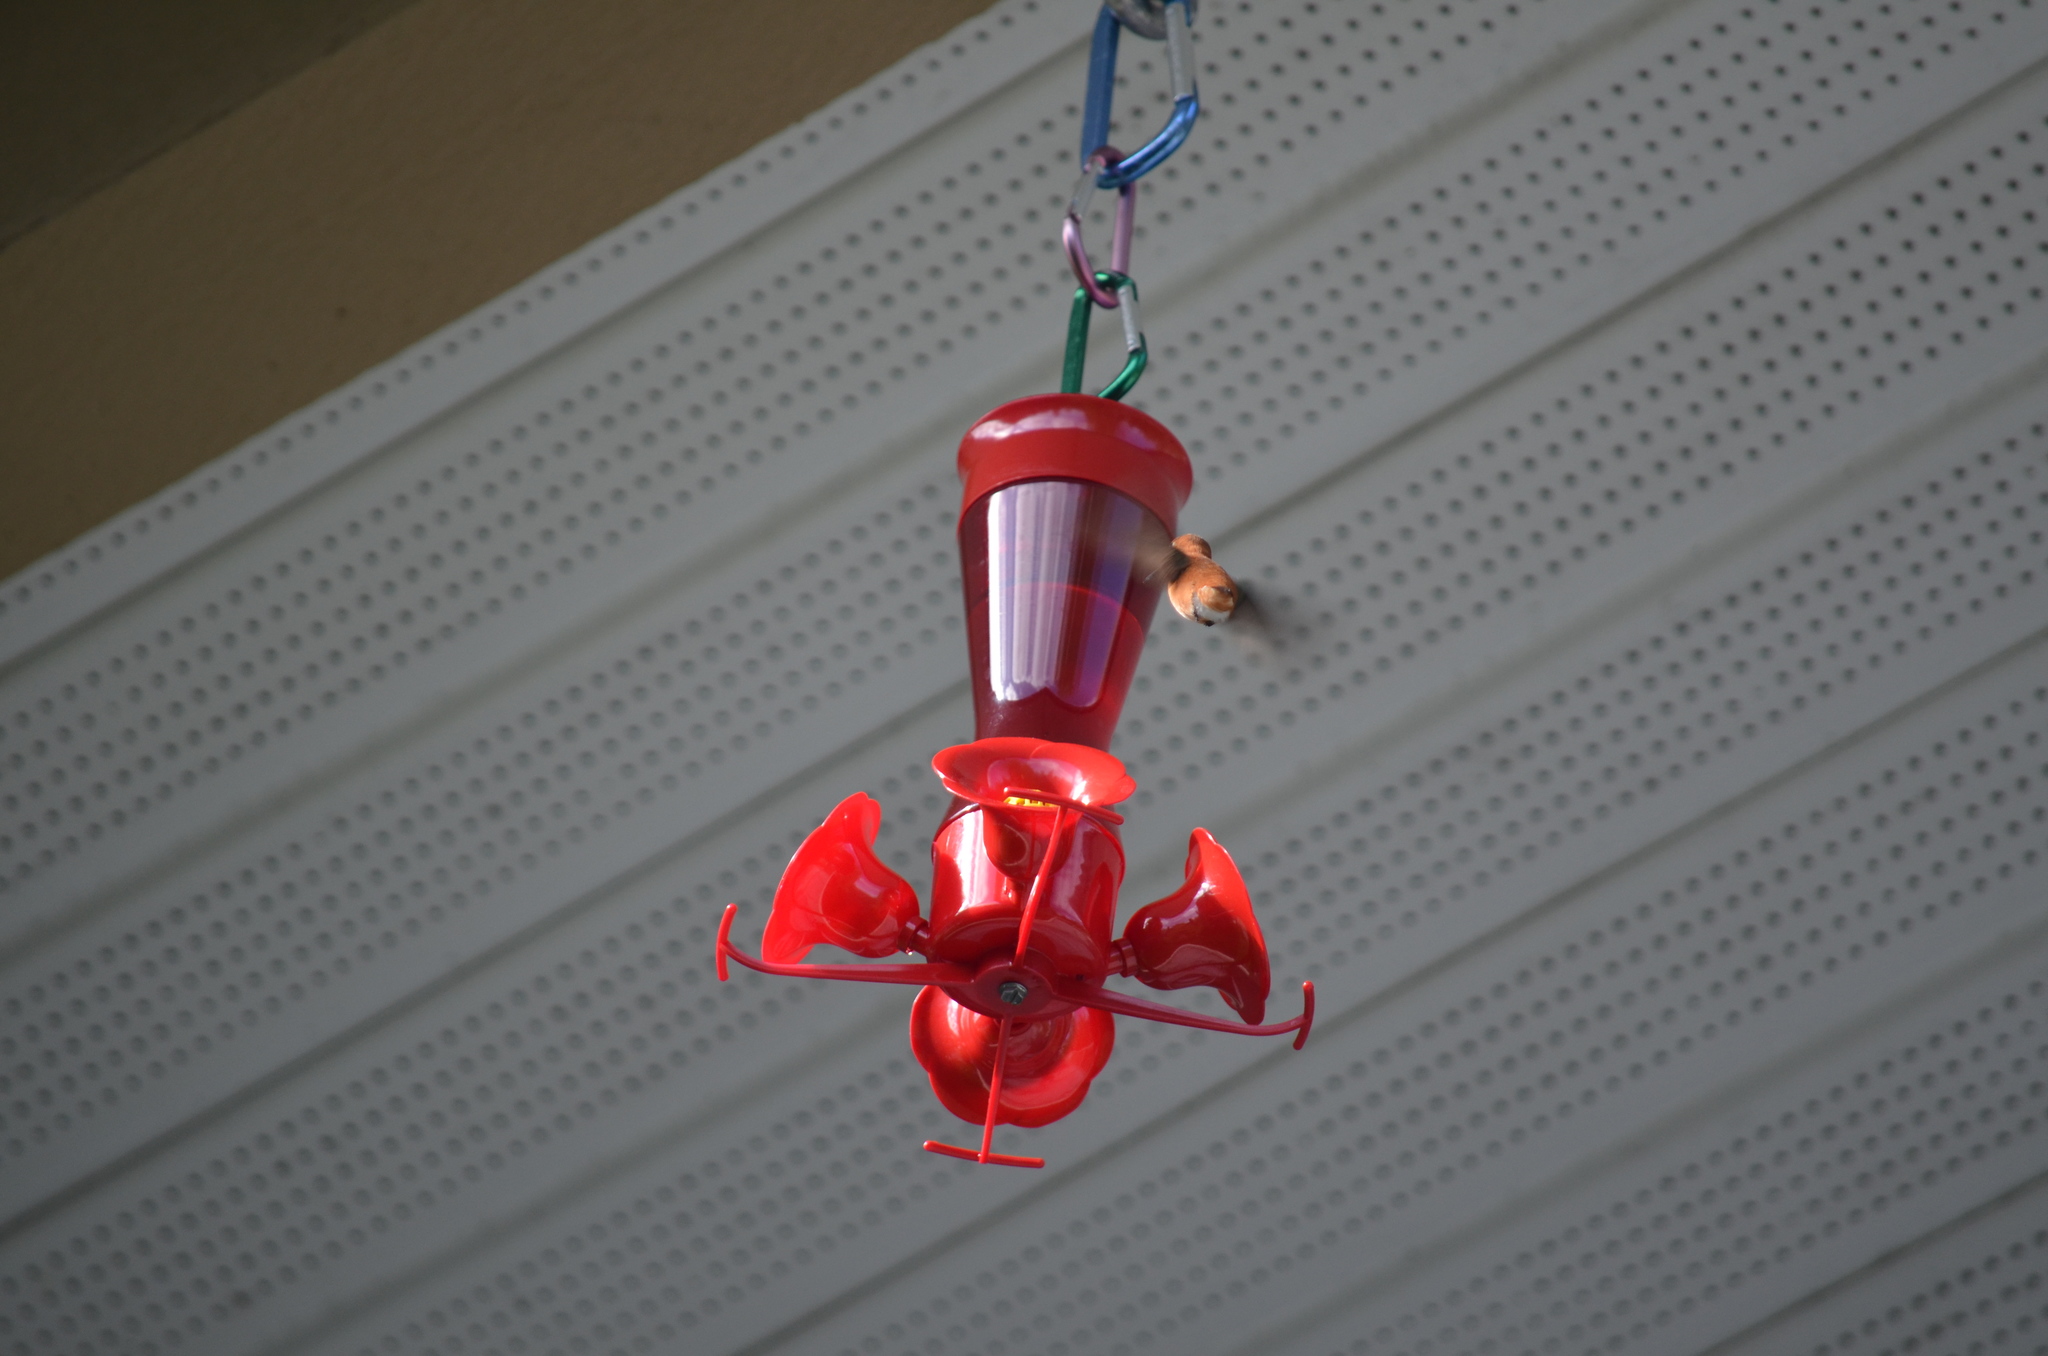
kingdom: Animalia
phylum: Chordata
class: Aves
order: Apodiformes
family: Trochilidae
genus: Selasphorus
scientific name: Selasphorus rufus
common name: Rufous hummingbird
